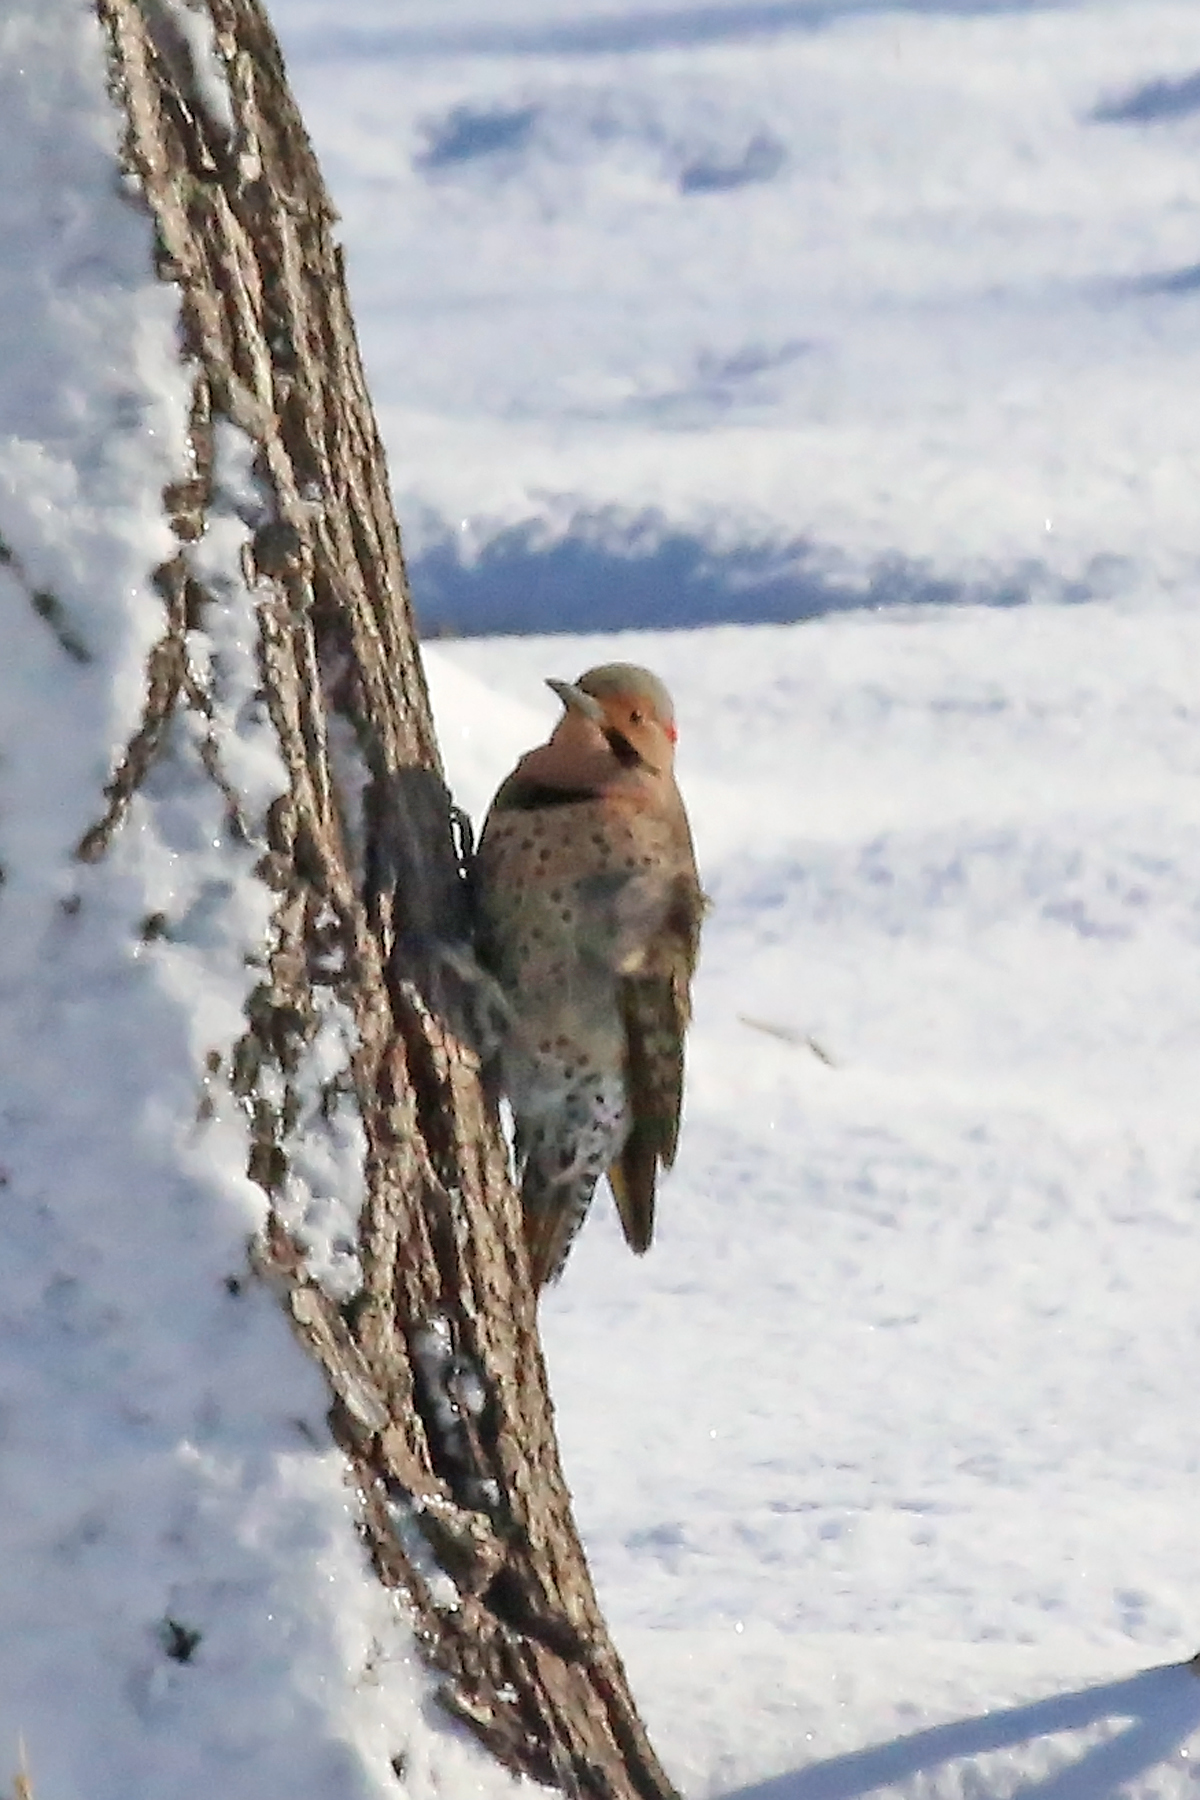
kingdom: Animalia
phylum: Chordata
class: Aves
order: Piciformes
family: Picidae
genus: Colaptes
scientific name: Colaptes auratus
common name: Northern flicker
